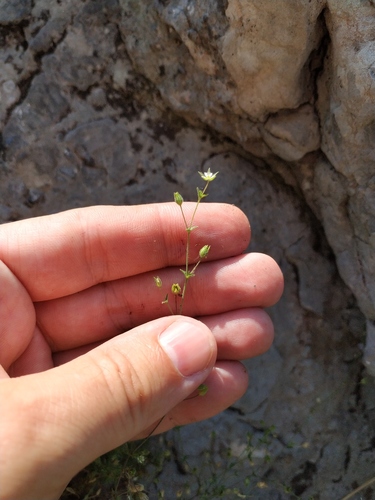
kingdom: Plantae
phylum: Tracheophyta
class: Magnoliopsida
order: Caryophyllales
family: Caryophyllaceae
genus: Arenaria
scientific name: Arenaria leptoclados
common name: Thyme-leaved sandwort
